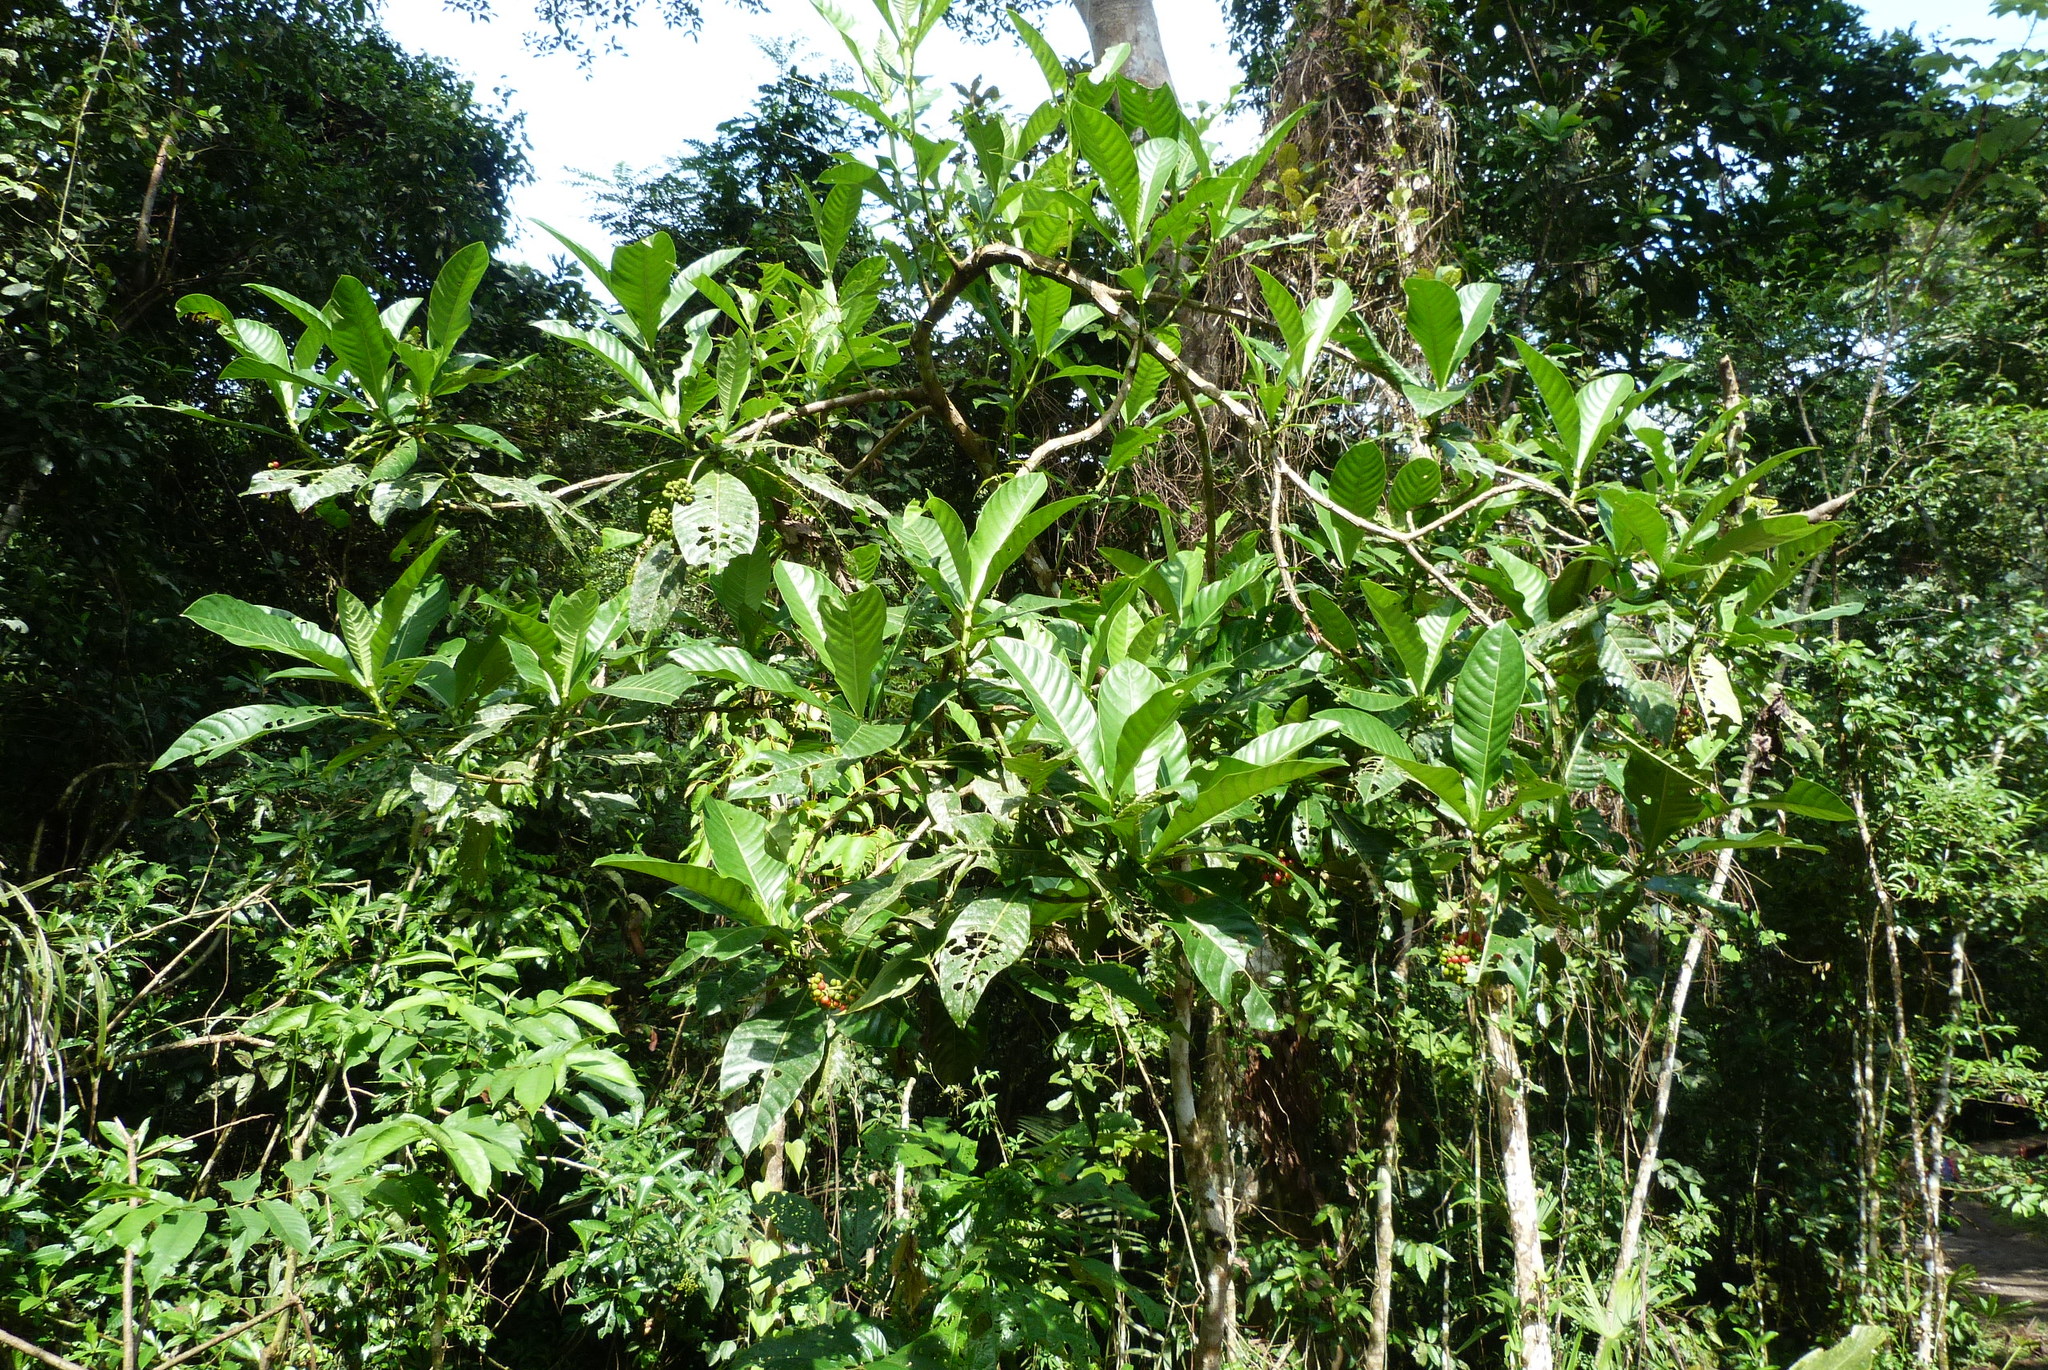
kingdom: Plantae
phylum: Tracheophyta
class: Magnoliopsida
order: Gentianales
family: Rubiaceae
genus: Psychotria
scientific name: Psychotria grandis
